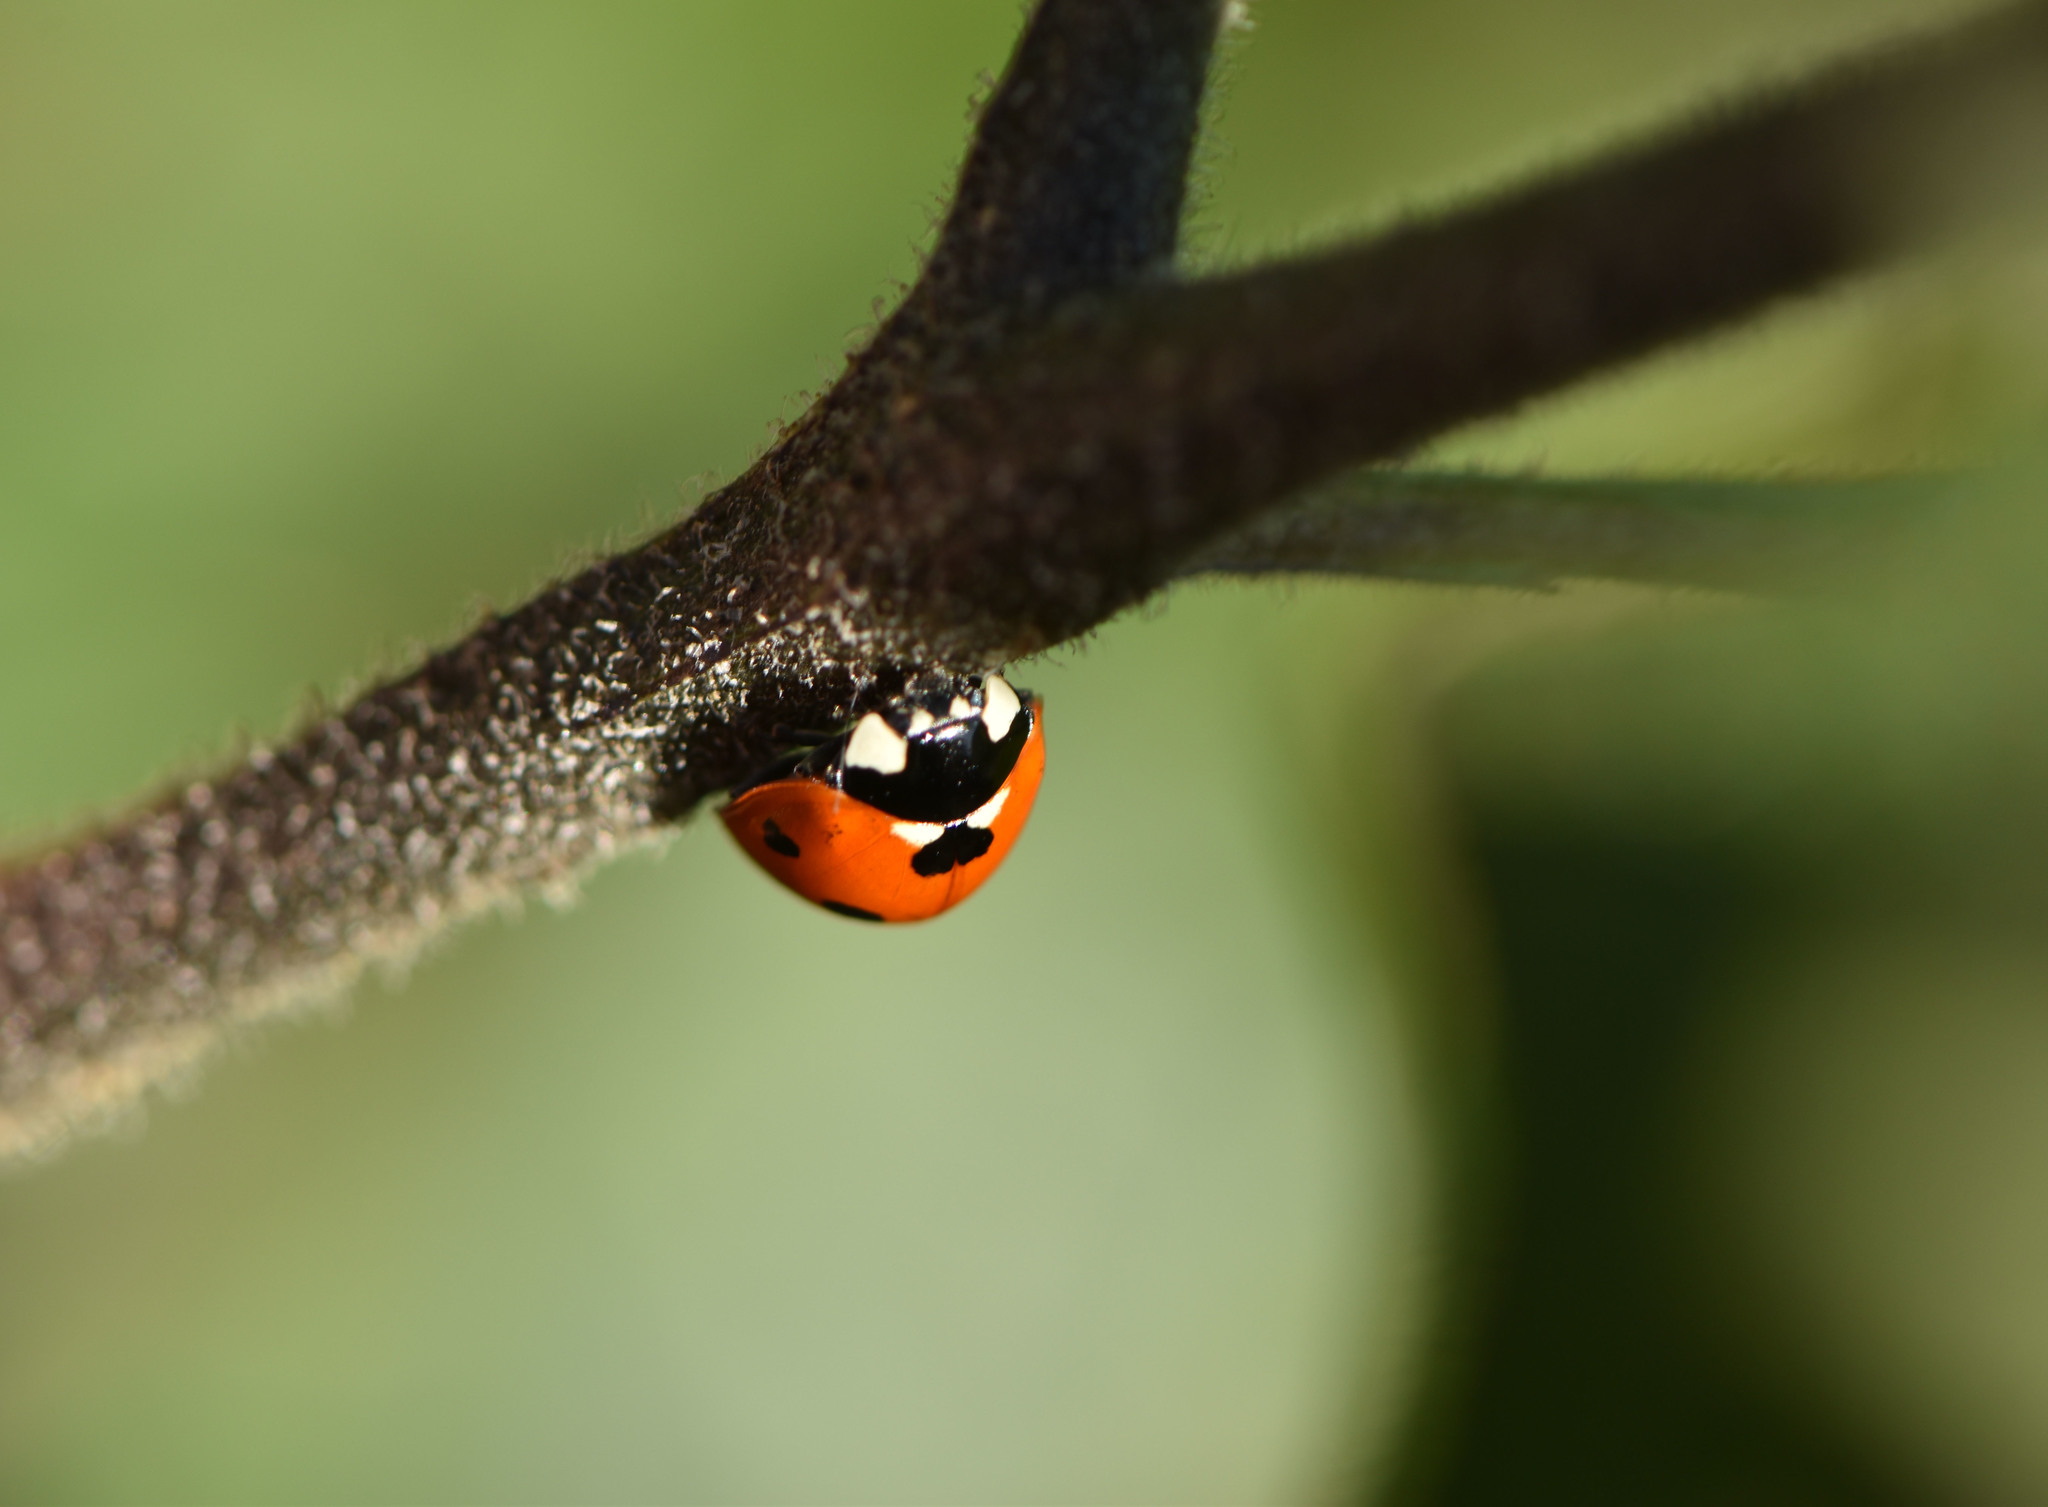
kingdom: Animalia
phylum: Arthropoda
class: Insecta
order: Coleoptera
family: Coccinellidae
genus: Coccinella
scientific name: Coccinella septempunctata
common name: Sevenspotted lady beetle
